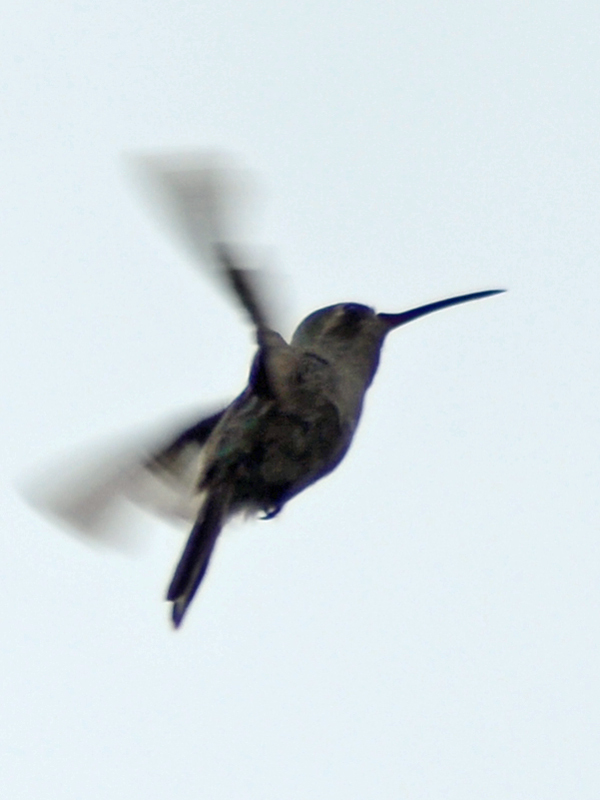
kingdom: Animalia
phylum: Chordata
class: Aves
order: Apodiformes
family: Trochilidae
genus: Cynanthus
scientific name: Cynanthus latirostris
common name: Broad-billed hummingbird
